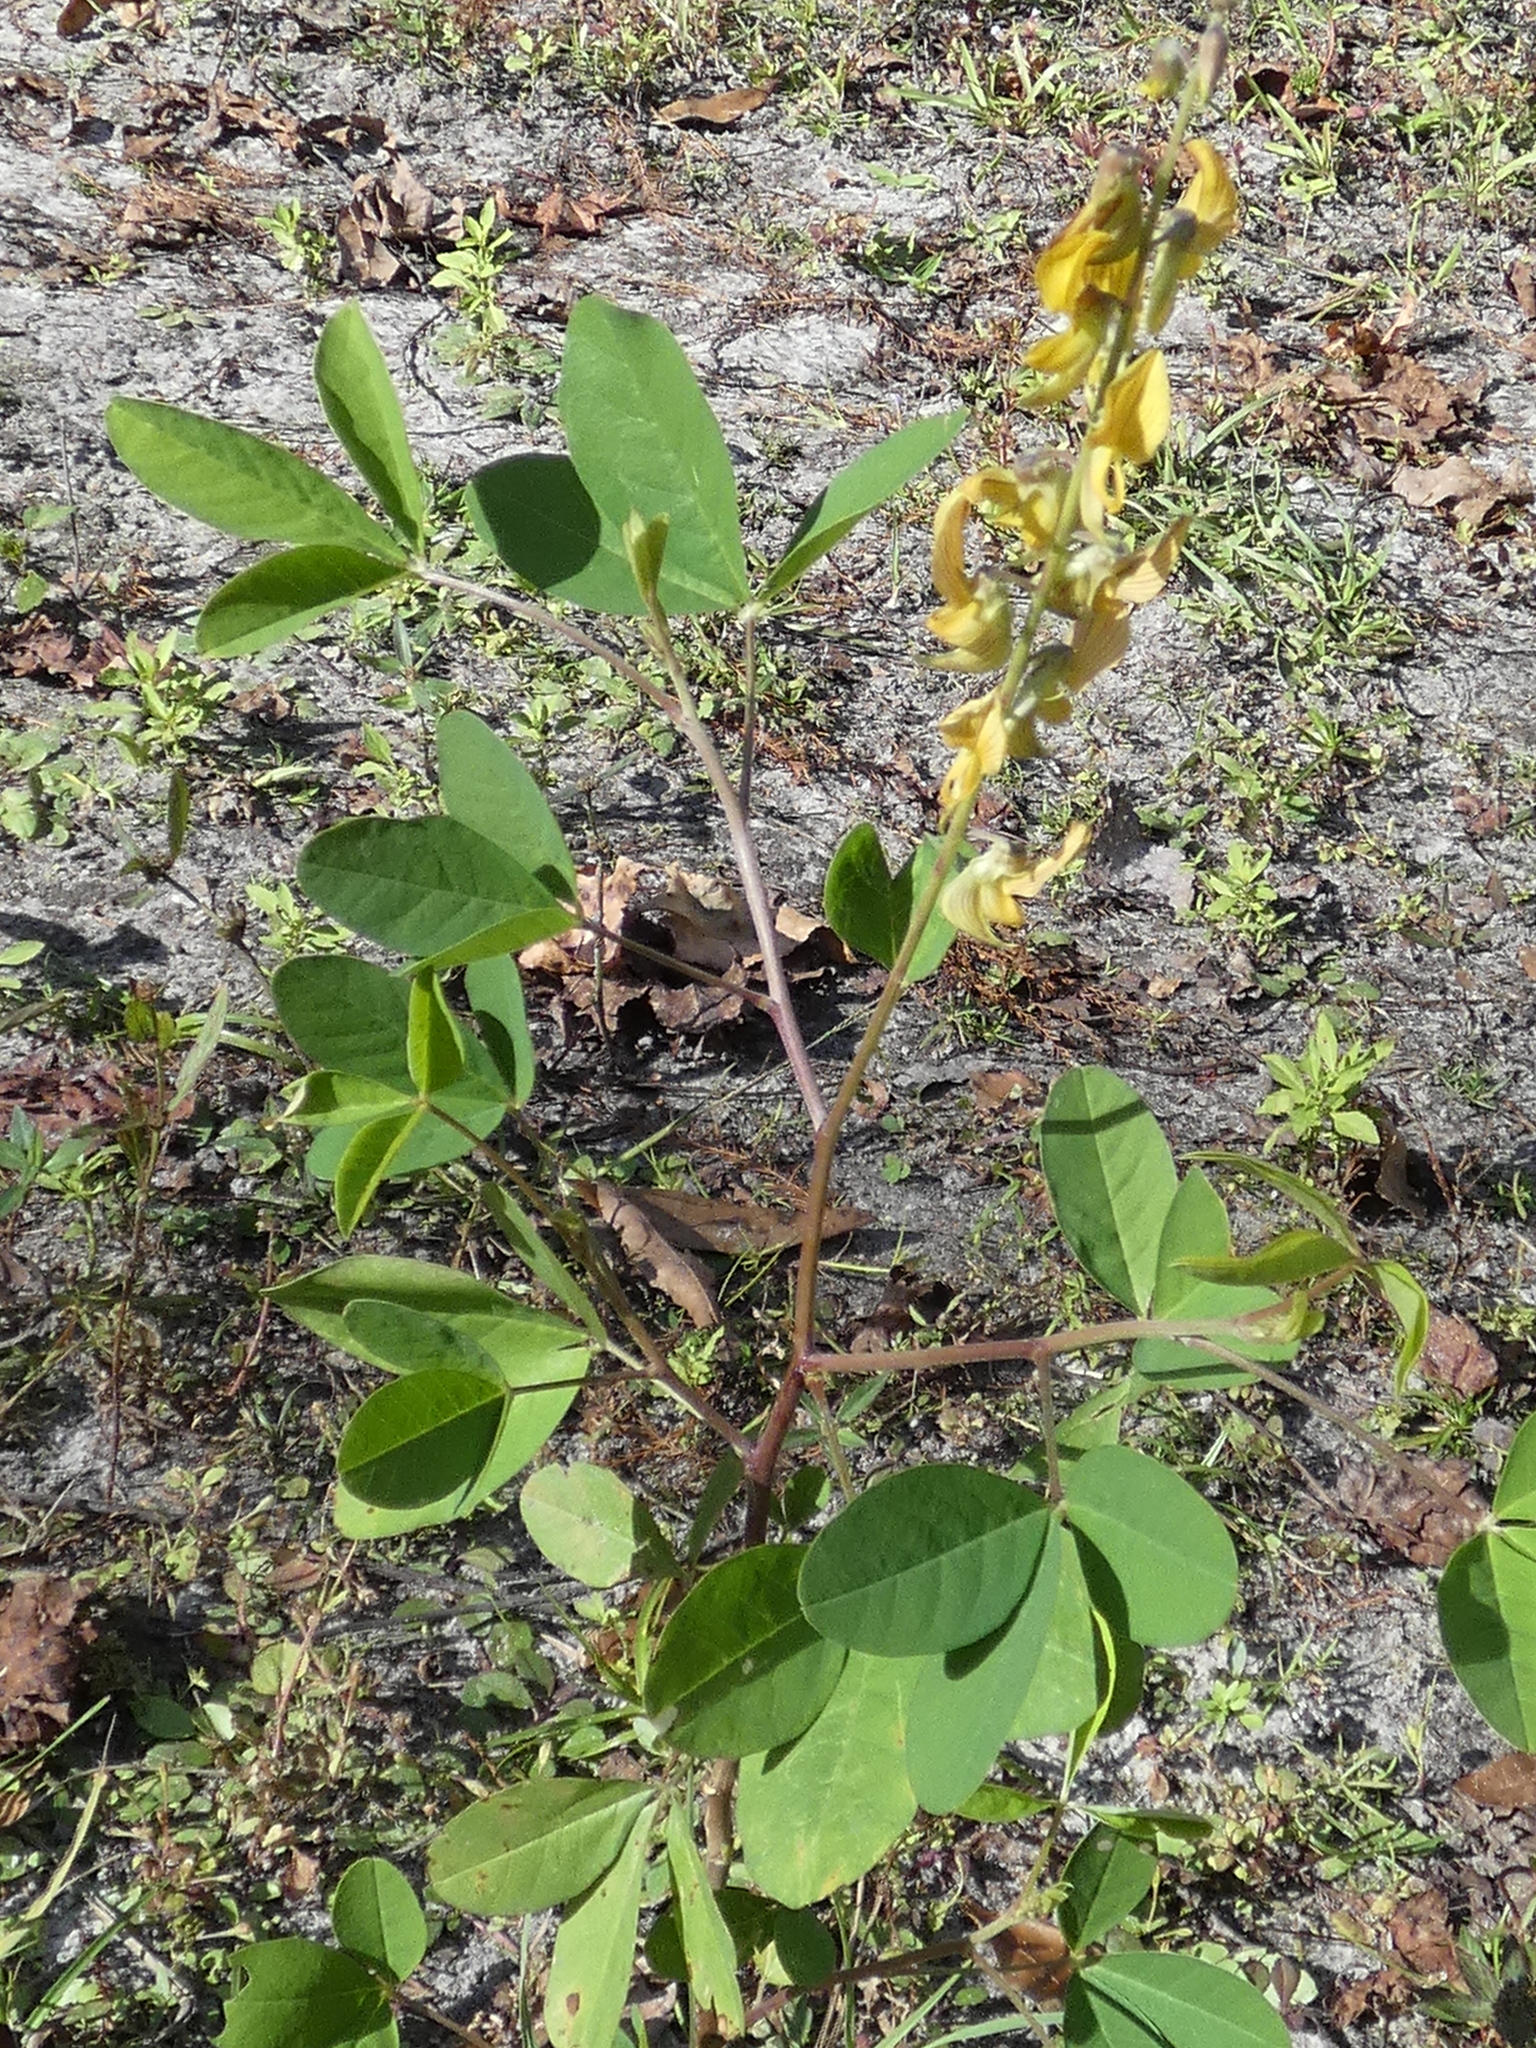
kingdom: Plantae
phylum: Tracheophyta
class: Magnoliopsida
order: Fabales
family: Fabaceae
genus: Crotalaria
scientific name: Crotalaria pallida
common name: Smooth rattlebox
